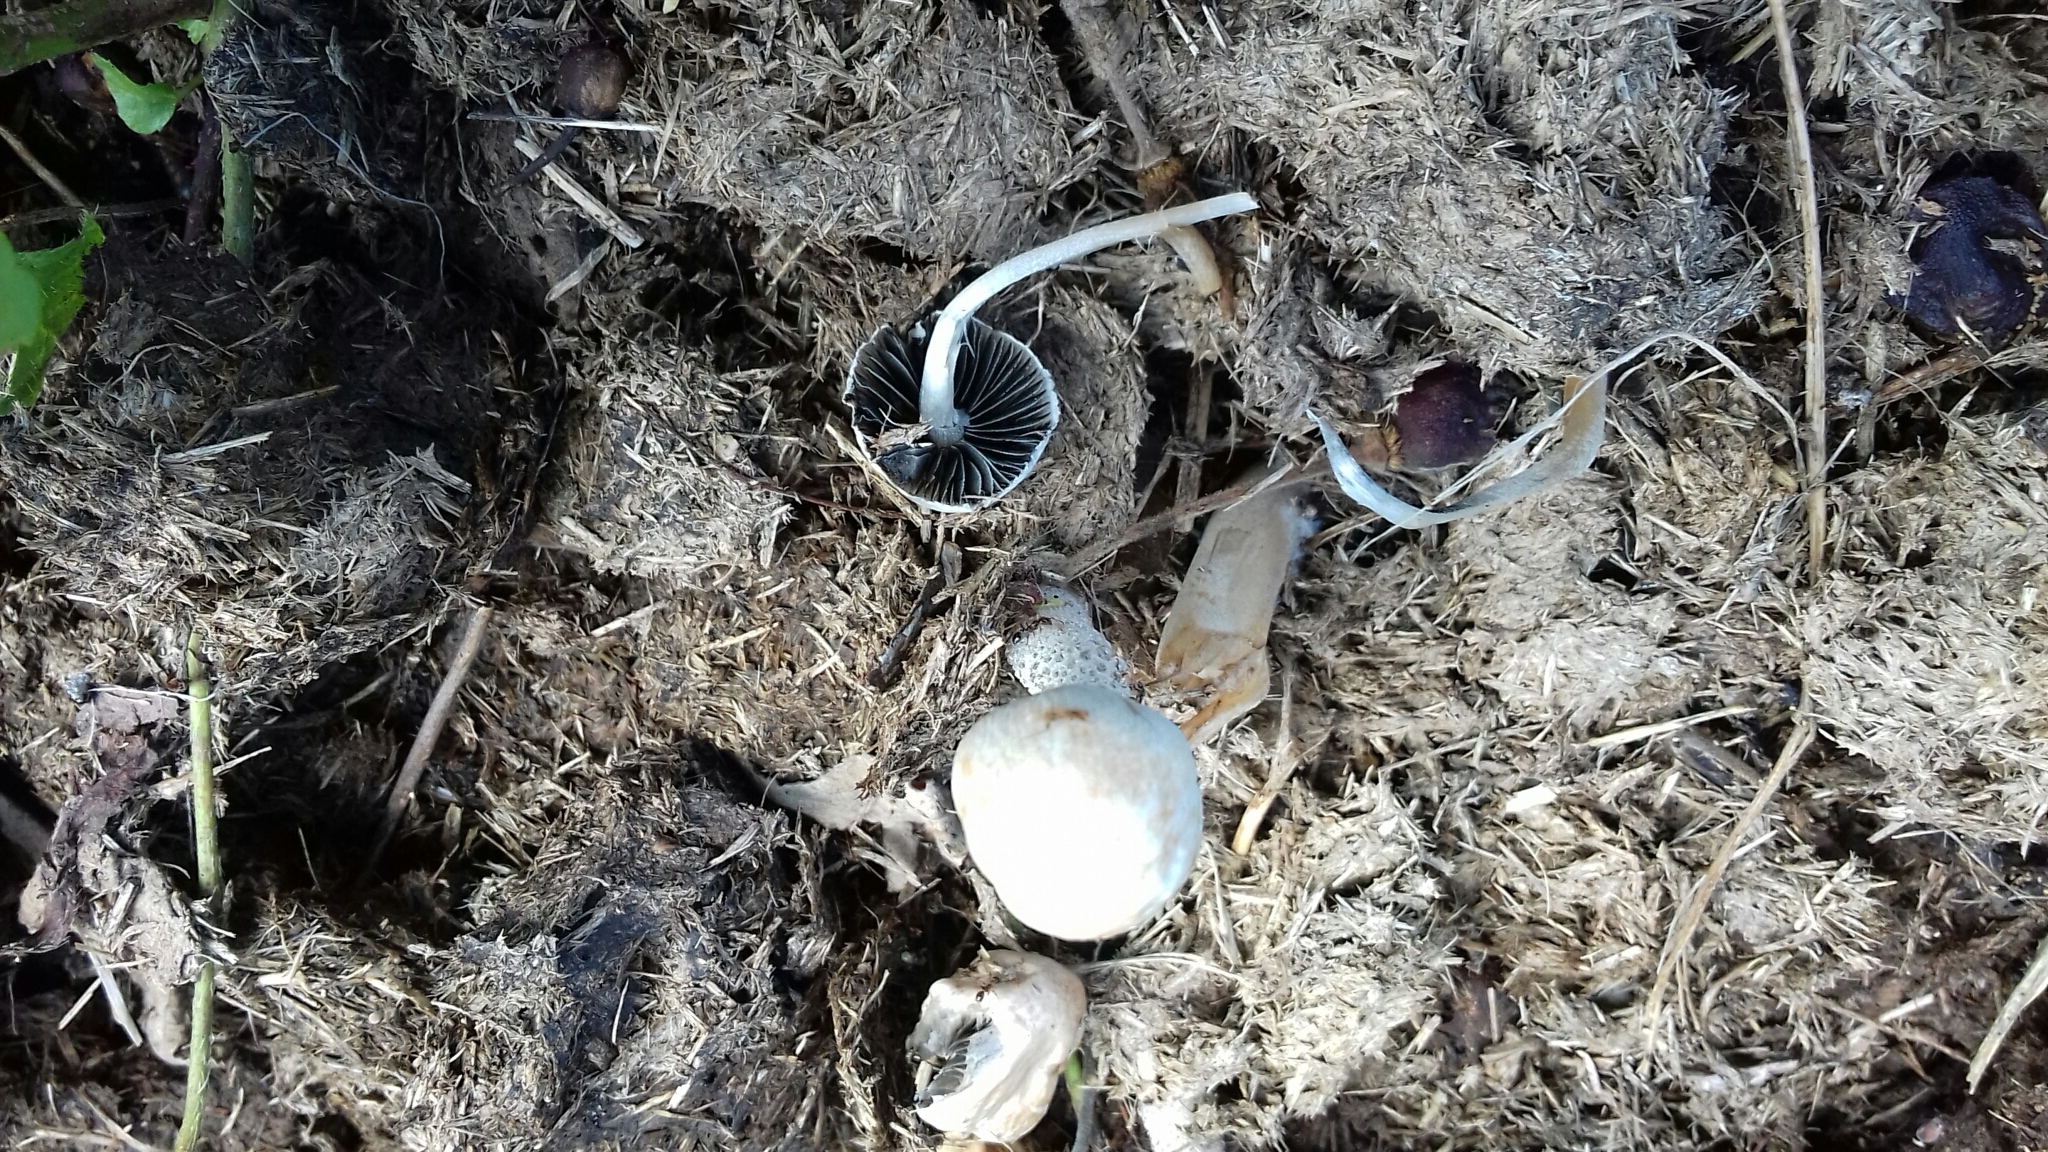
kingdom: Fungi
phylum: Basidiomycota
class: Agaricomycetes
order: Agaricales
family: Bolbitiaceae
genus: Panaeolus
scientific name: Panaeolus antillarum
